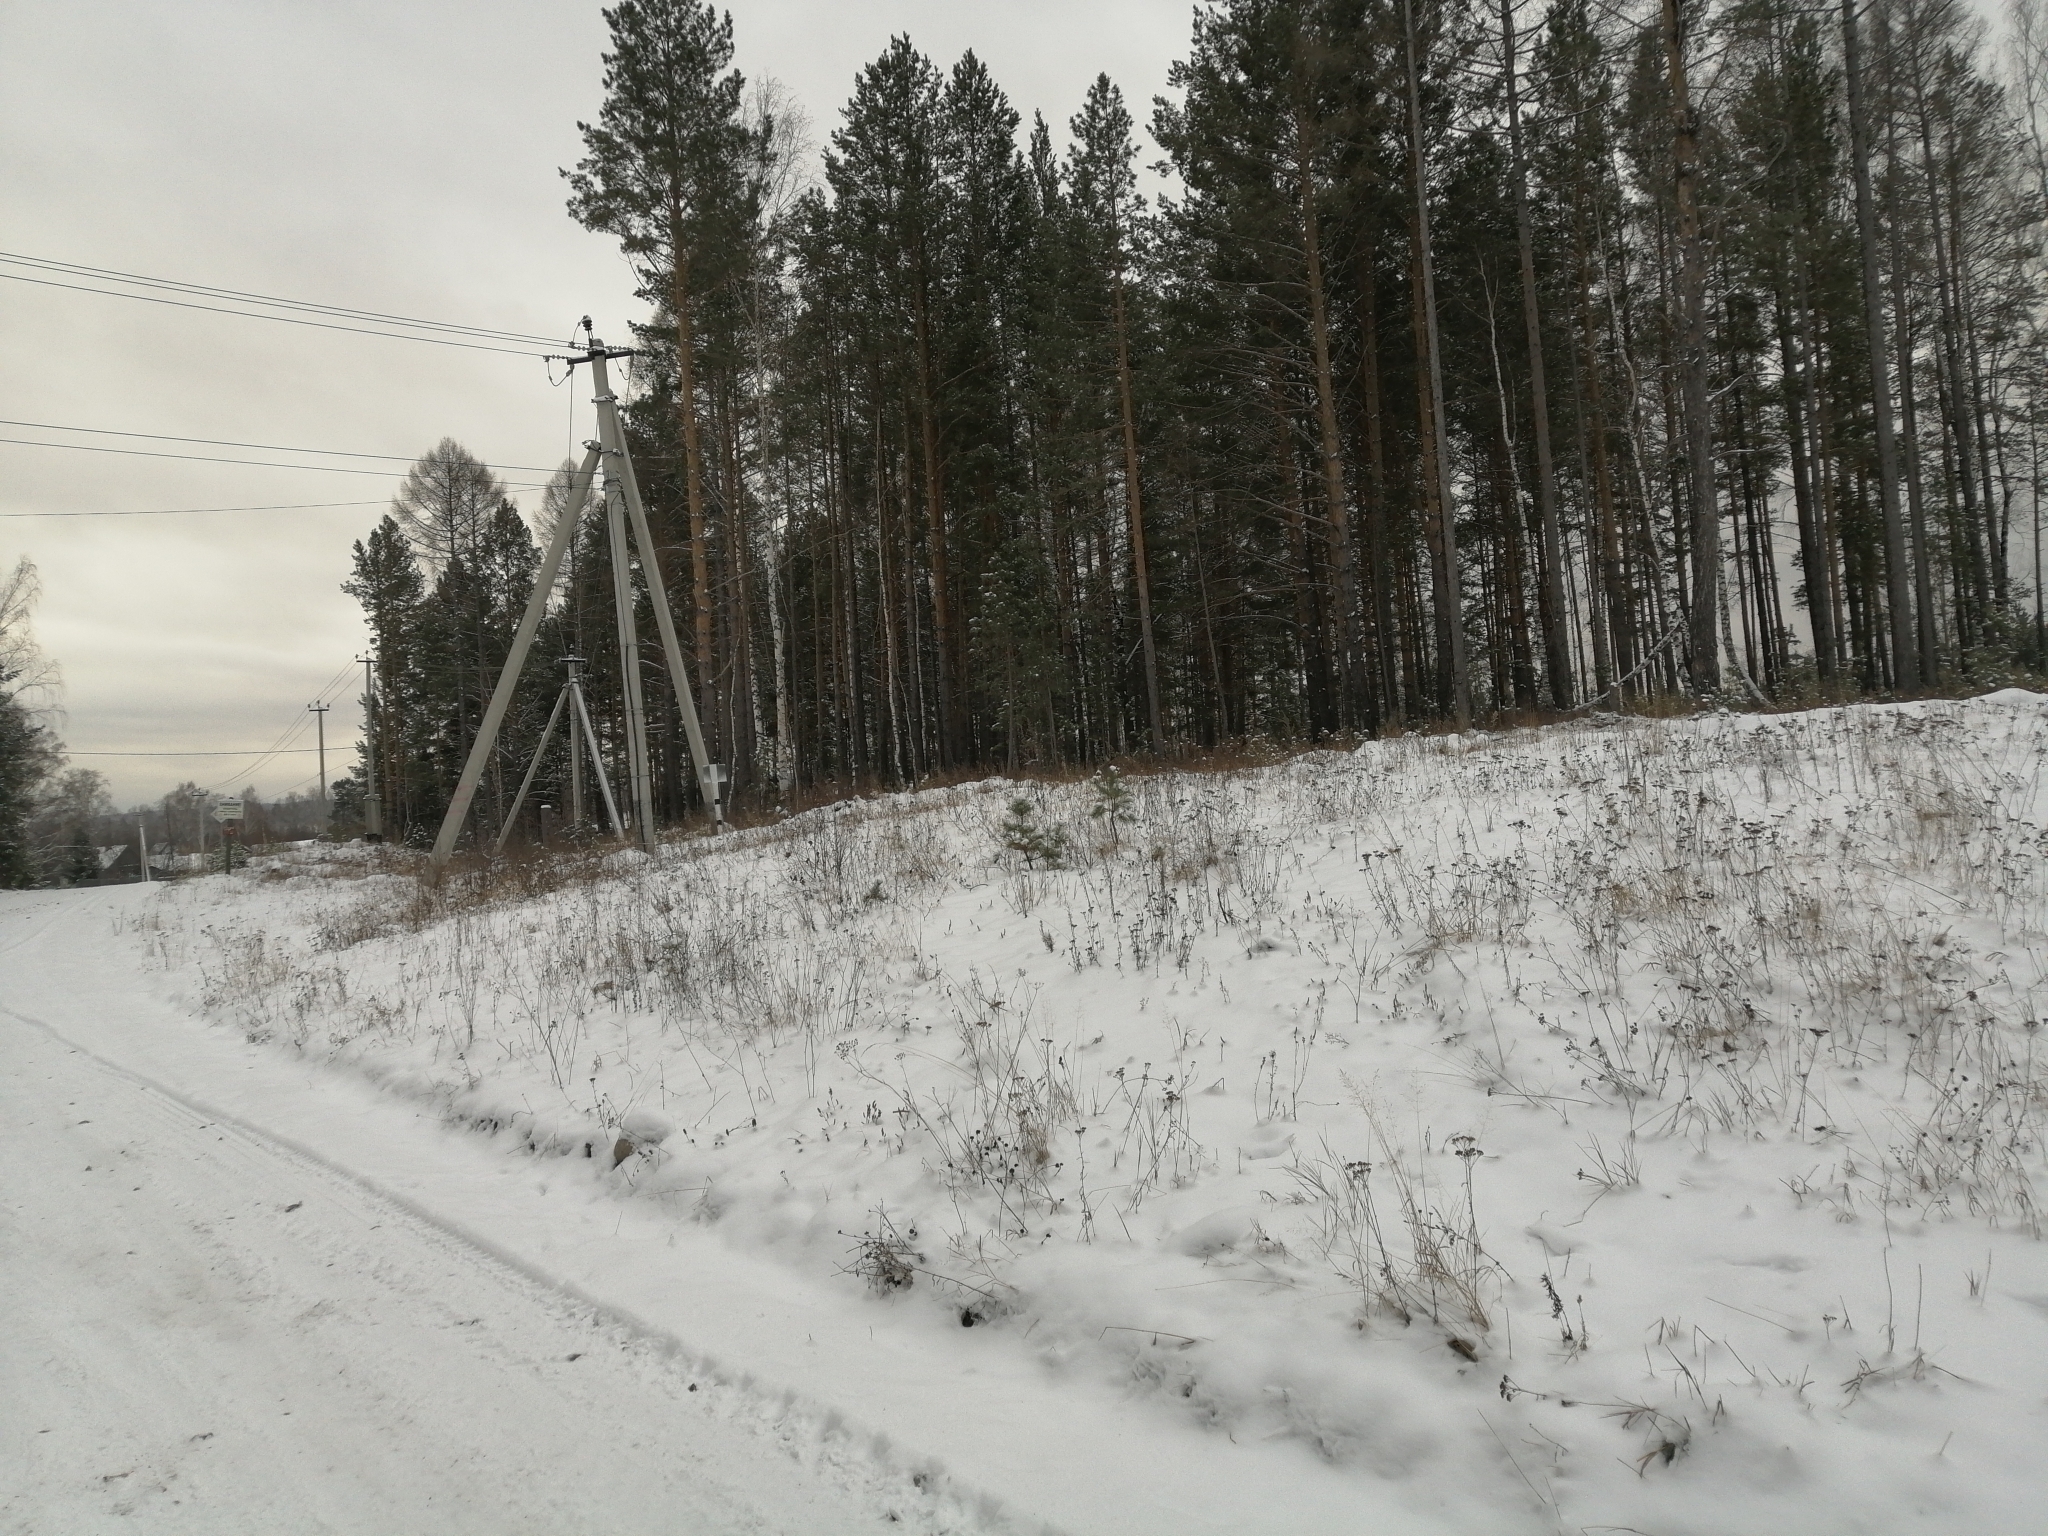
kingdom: Plantae
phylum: Tracheophyta
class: Pinopsida
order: Pinales
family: Pinaceae
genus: Pinus
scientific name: Pinus sylvestris
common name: Scots pine
